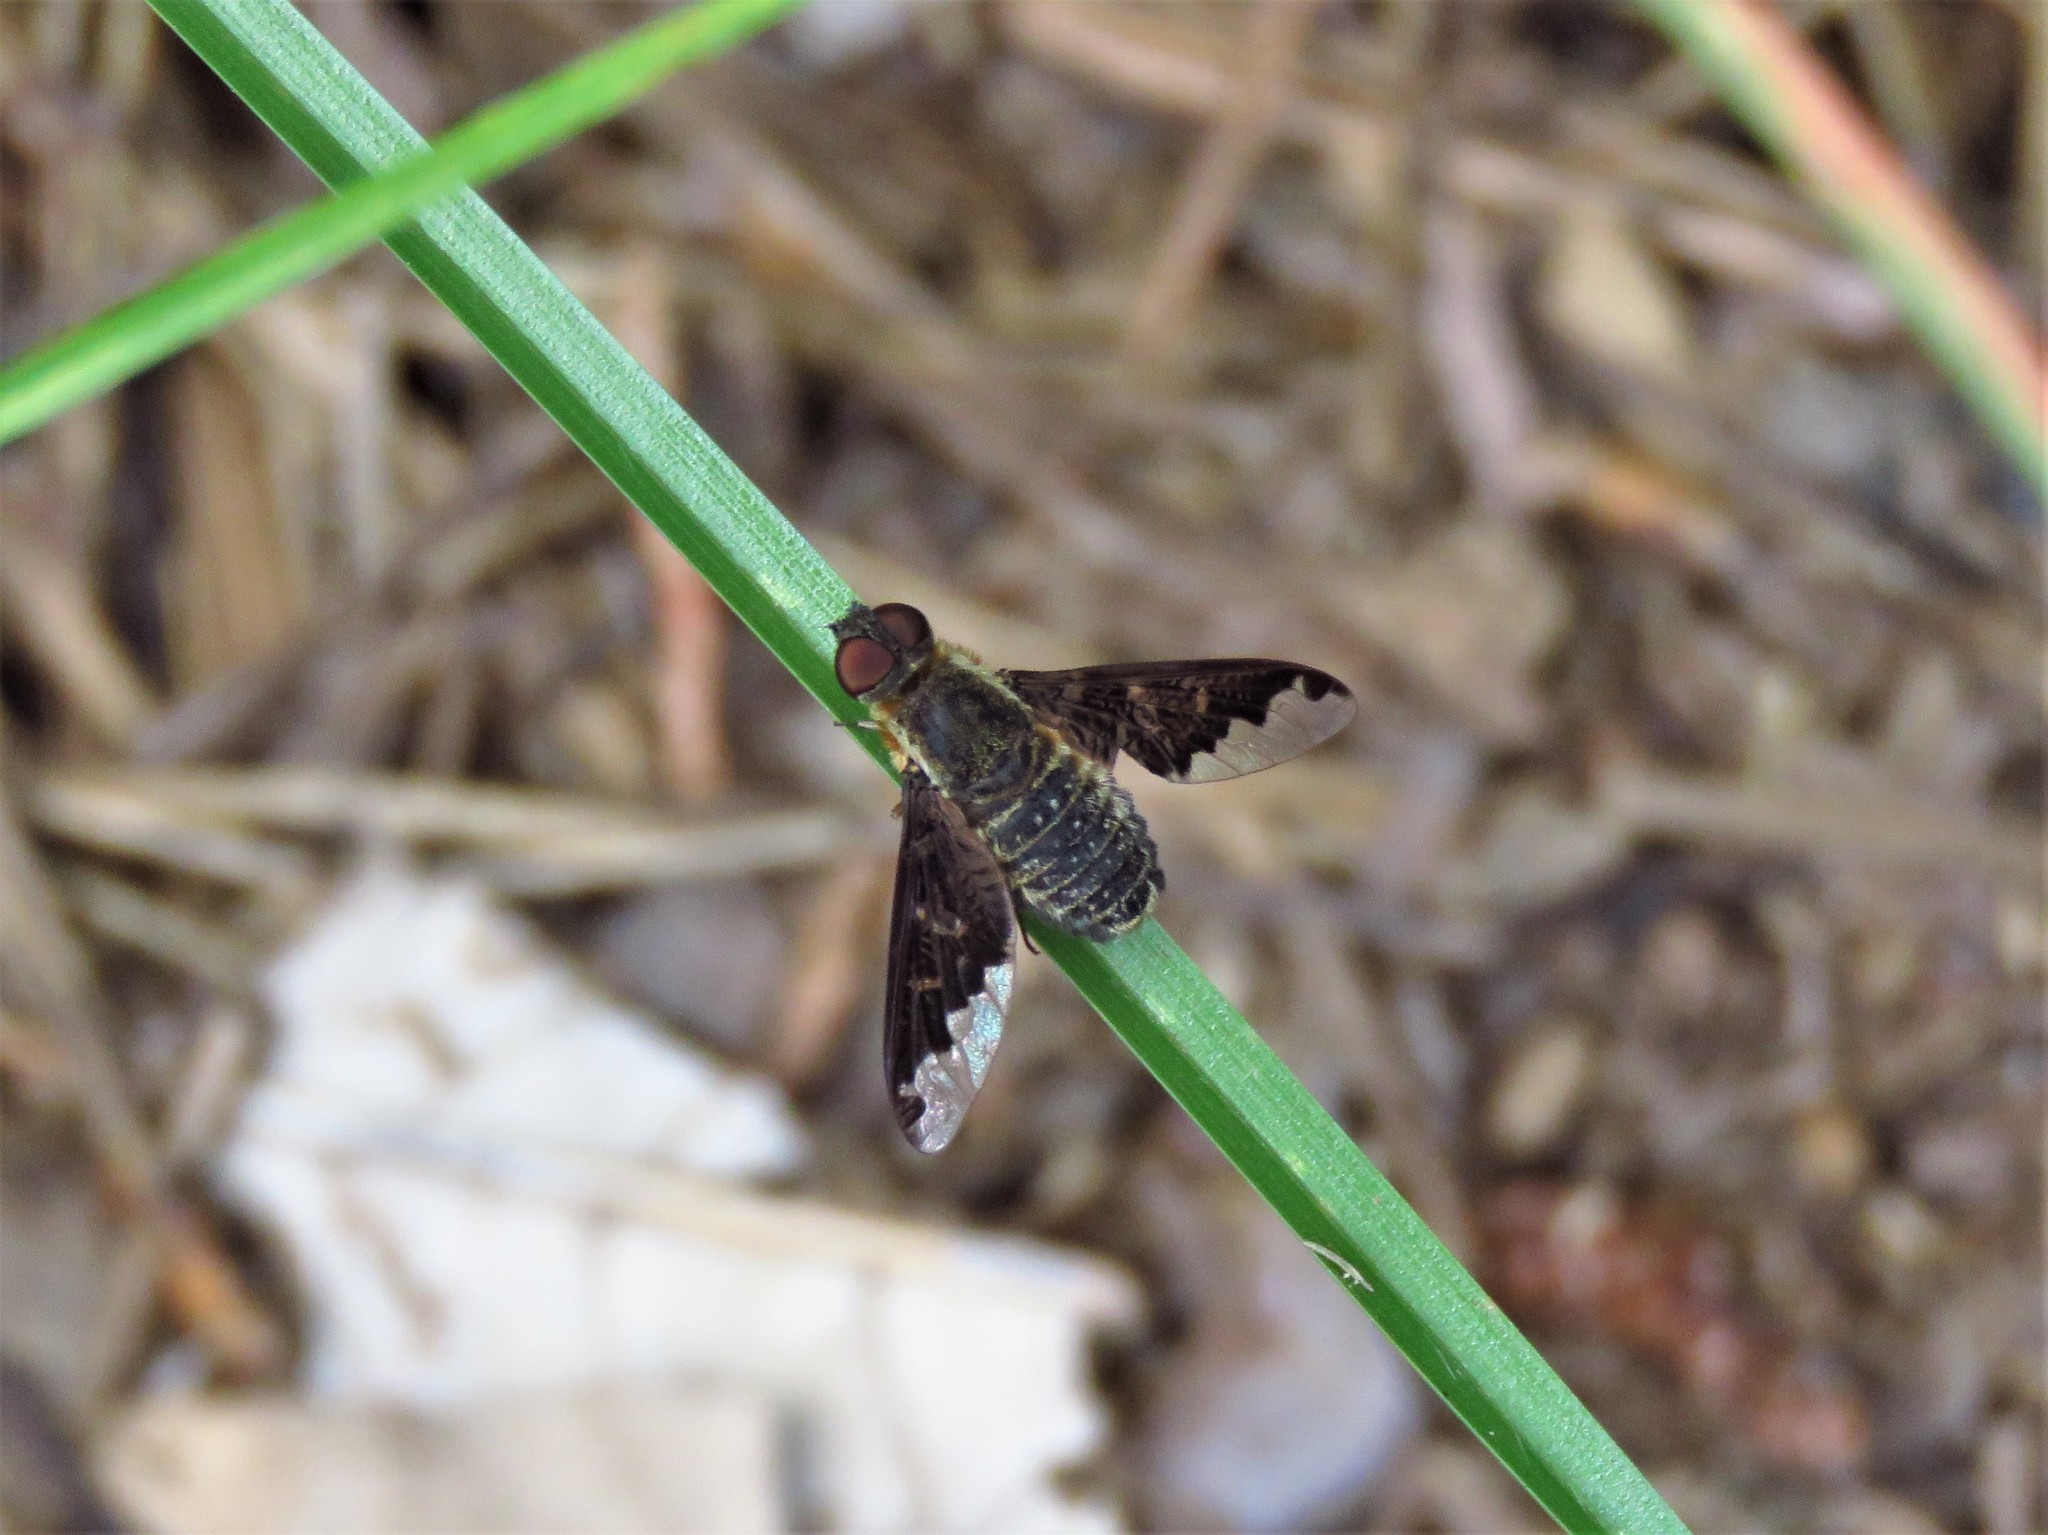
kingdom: Animalia
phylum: Arthropoda
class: Insecta
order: Diptera
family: Bombyliidae
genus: Hemipenthes
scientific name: Hemipenthes sinuosus
